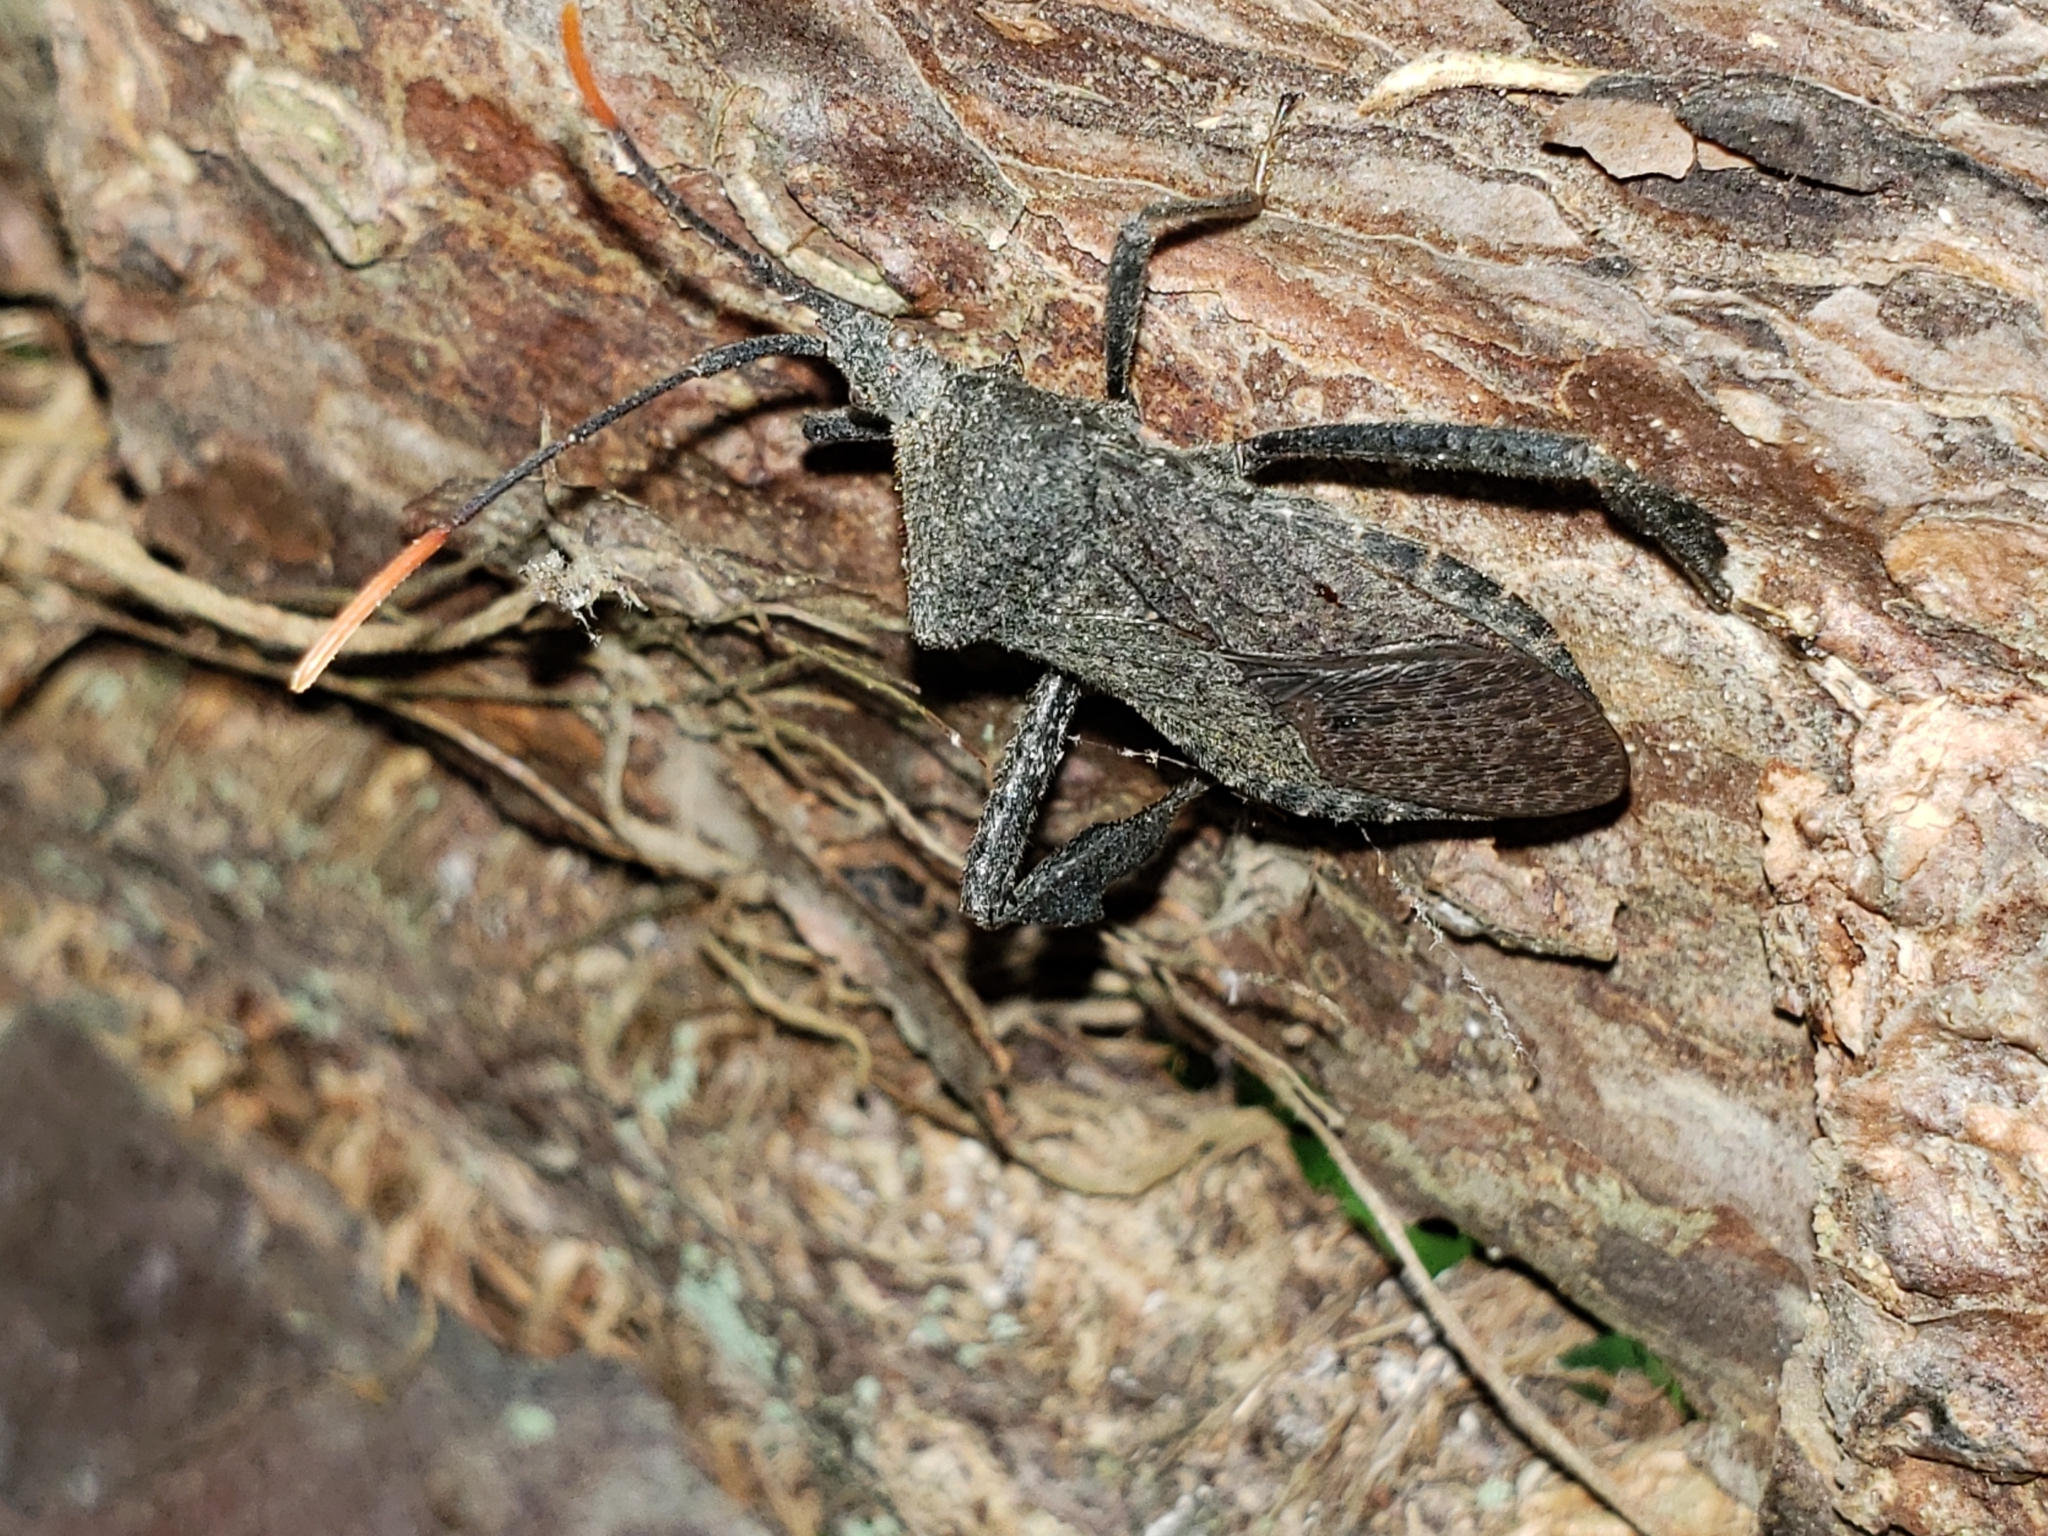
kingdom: Animalia
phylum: Arthropoda
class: Insecta
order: Hemiptera
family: Coreidae
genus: Acanthocephala
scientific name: Acanthocephala terminalis
